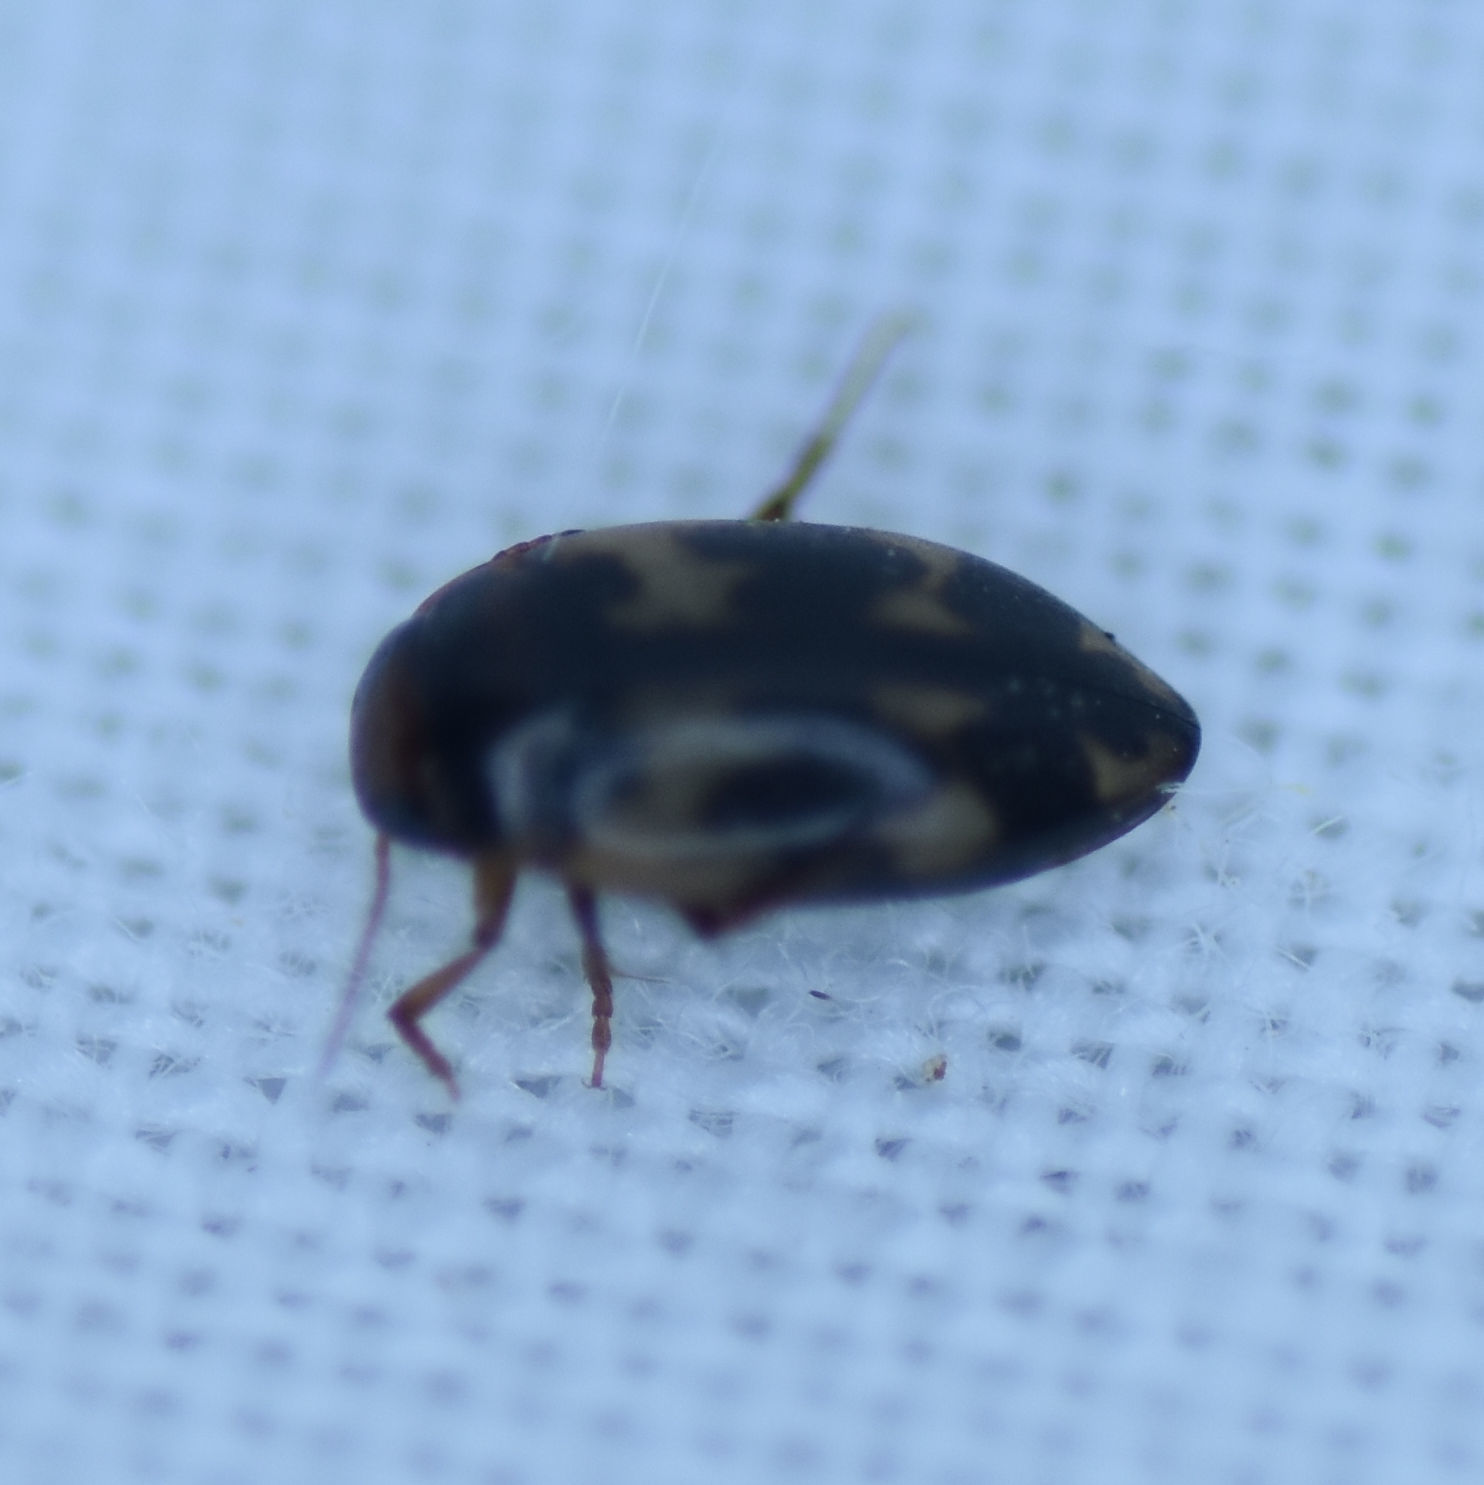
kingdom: Animalia
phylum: Arthropoda
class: Insecta
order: Coleoptera
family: Dytiscidae
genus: Heterosternuta
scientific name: Heterosternuta wickhami
